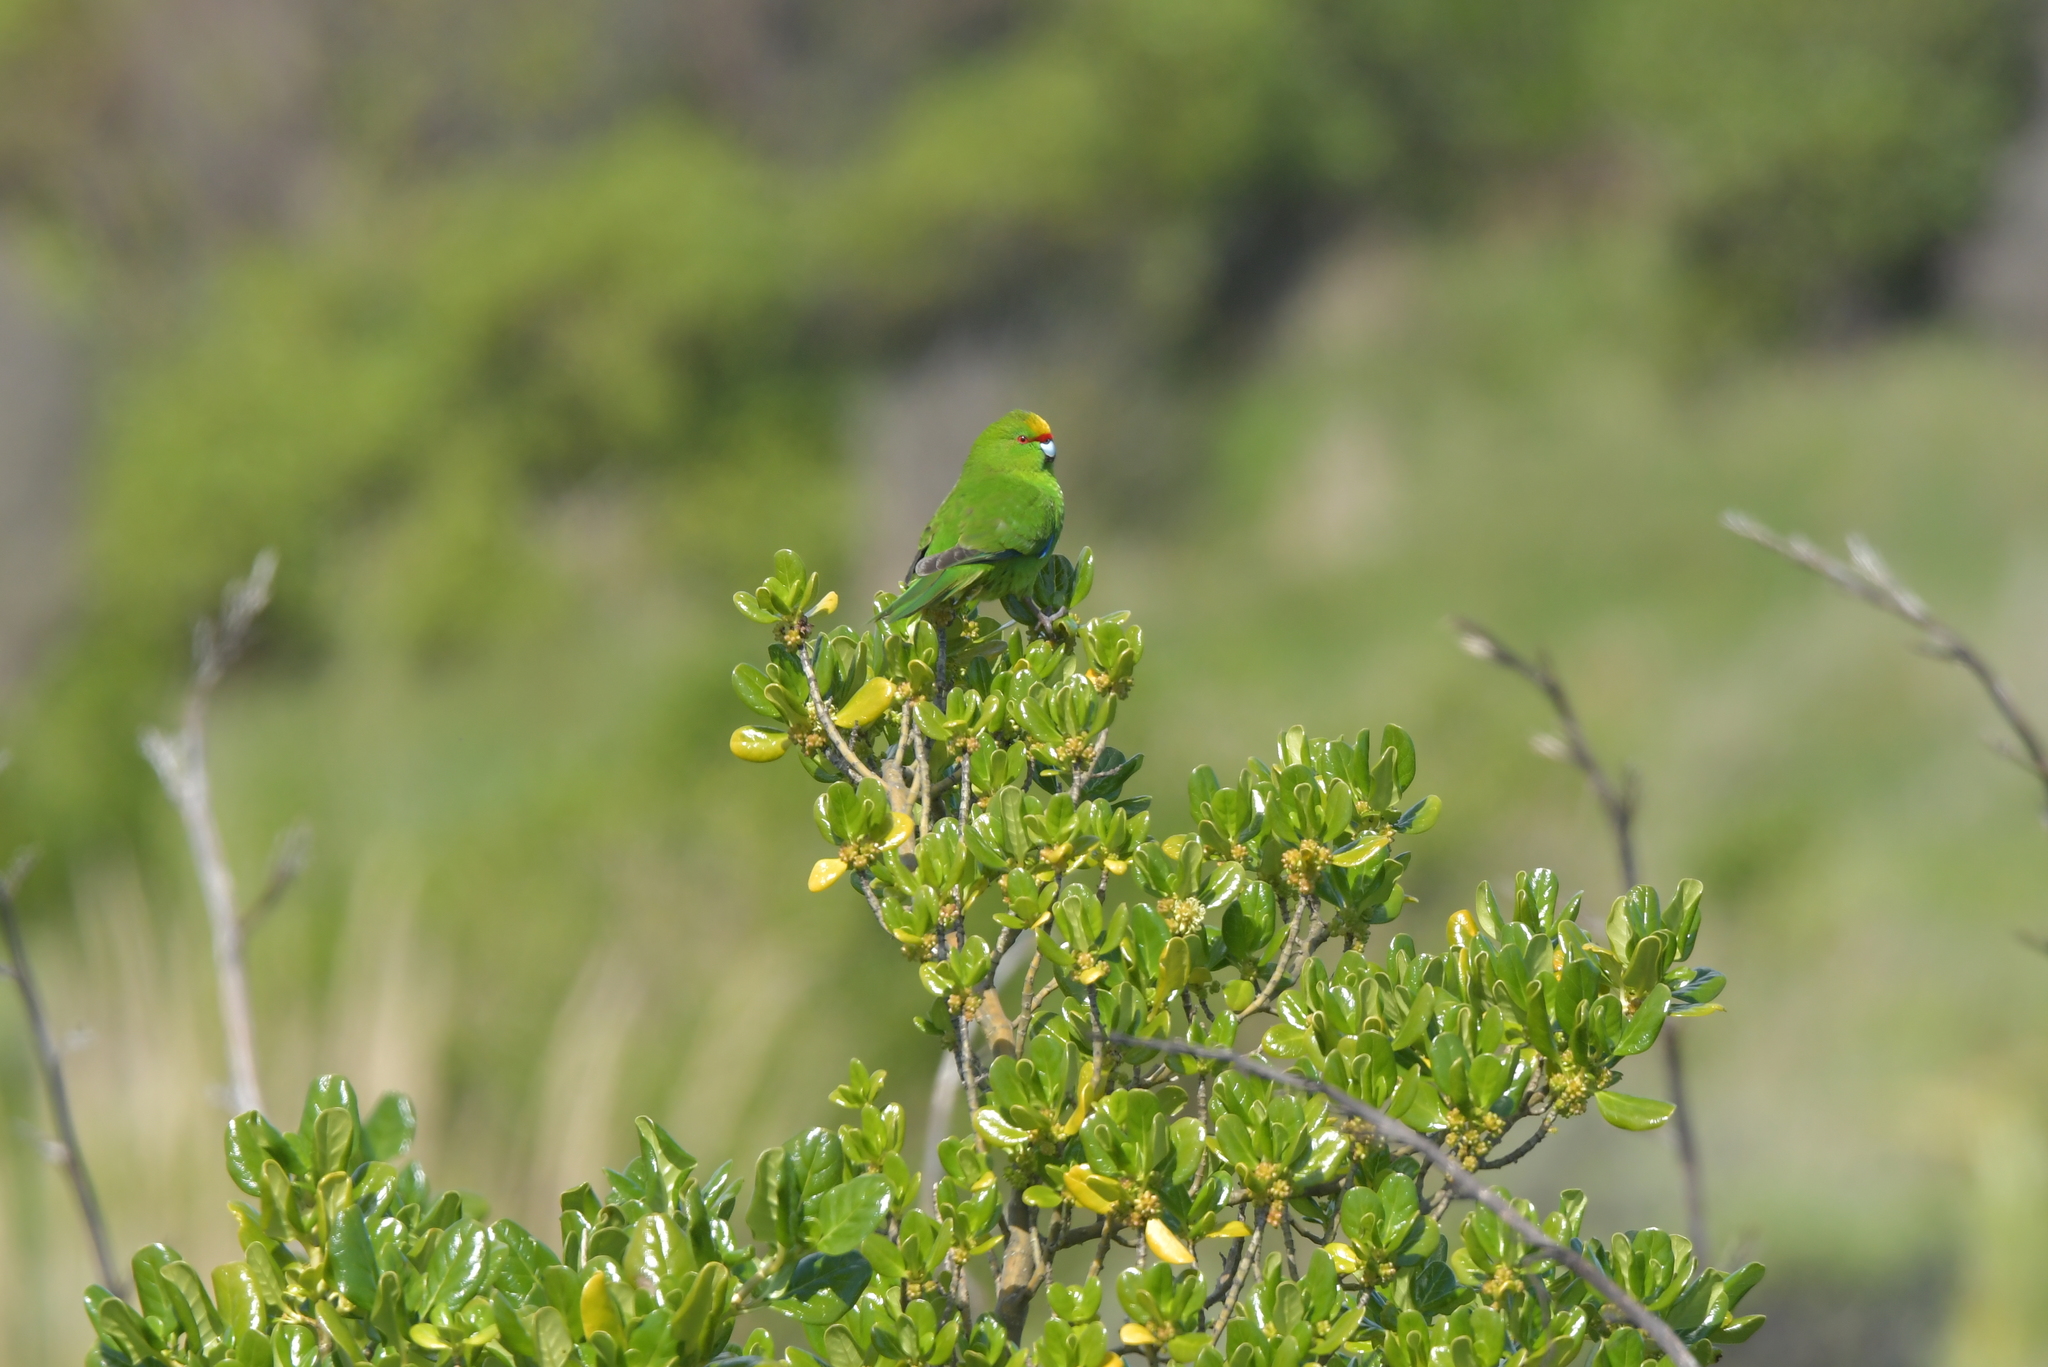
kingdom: Animalia
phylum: Chordata
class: Aves
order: Psittaciformes
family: Psittacidae
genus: Cyanoramphus
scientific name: Cyanoramphus auriceps
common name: Yellow-crowned parakeet
